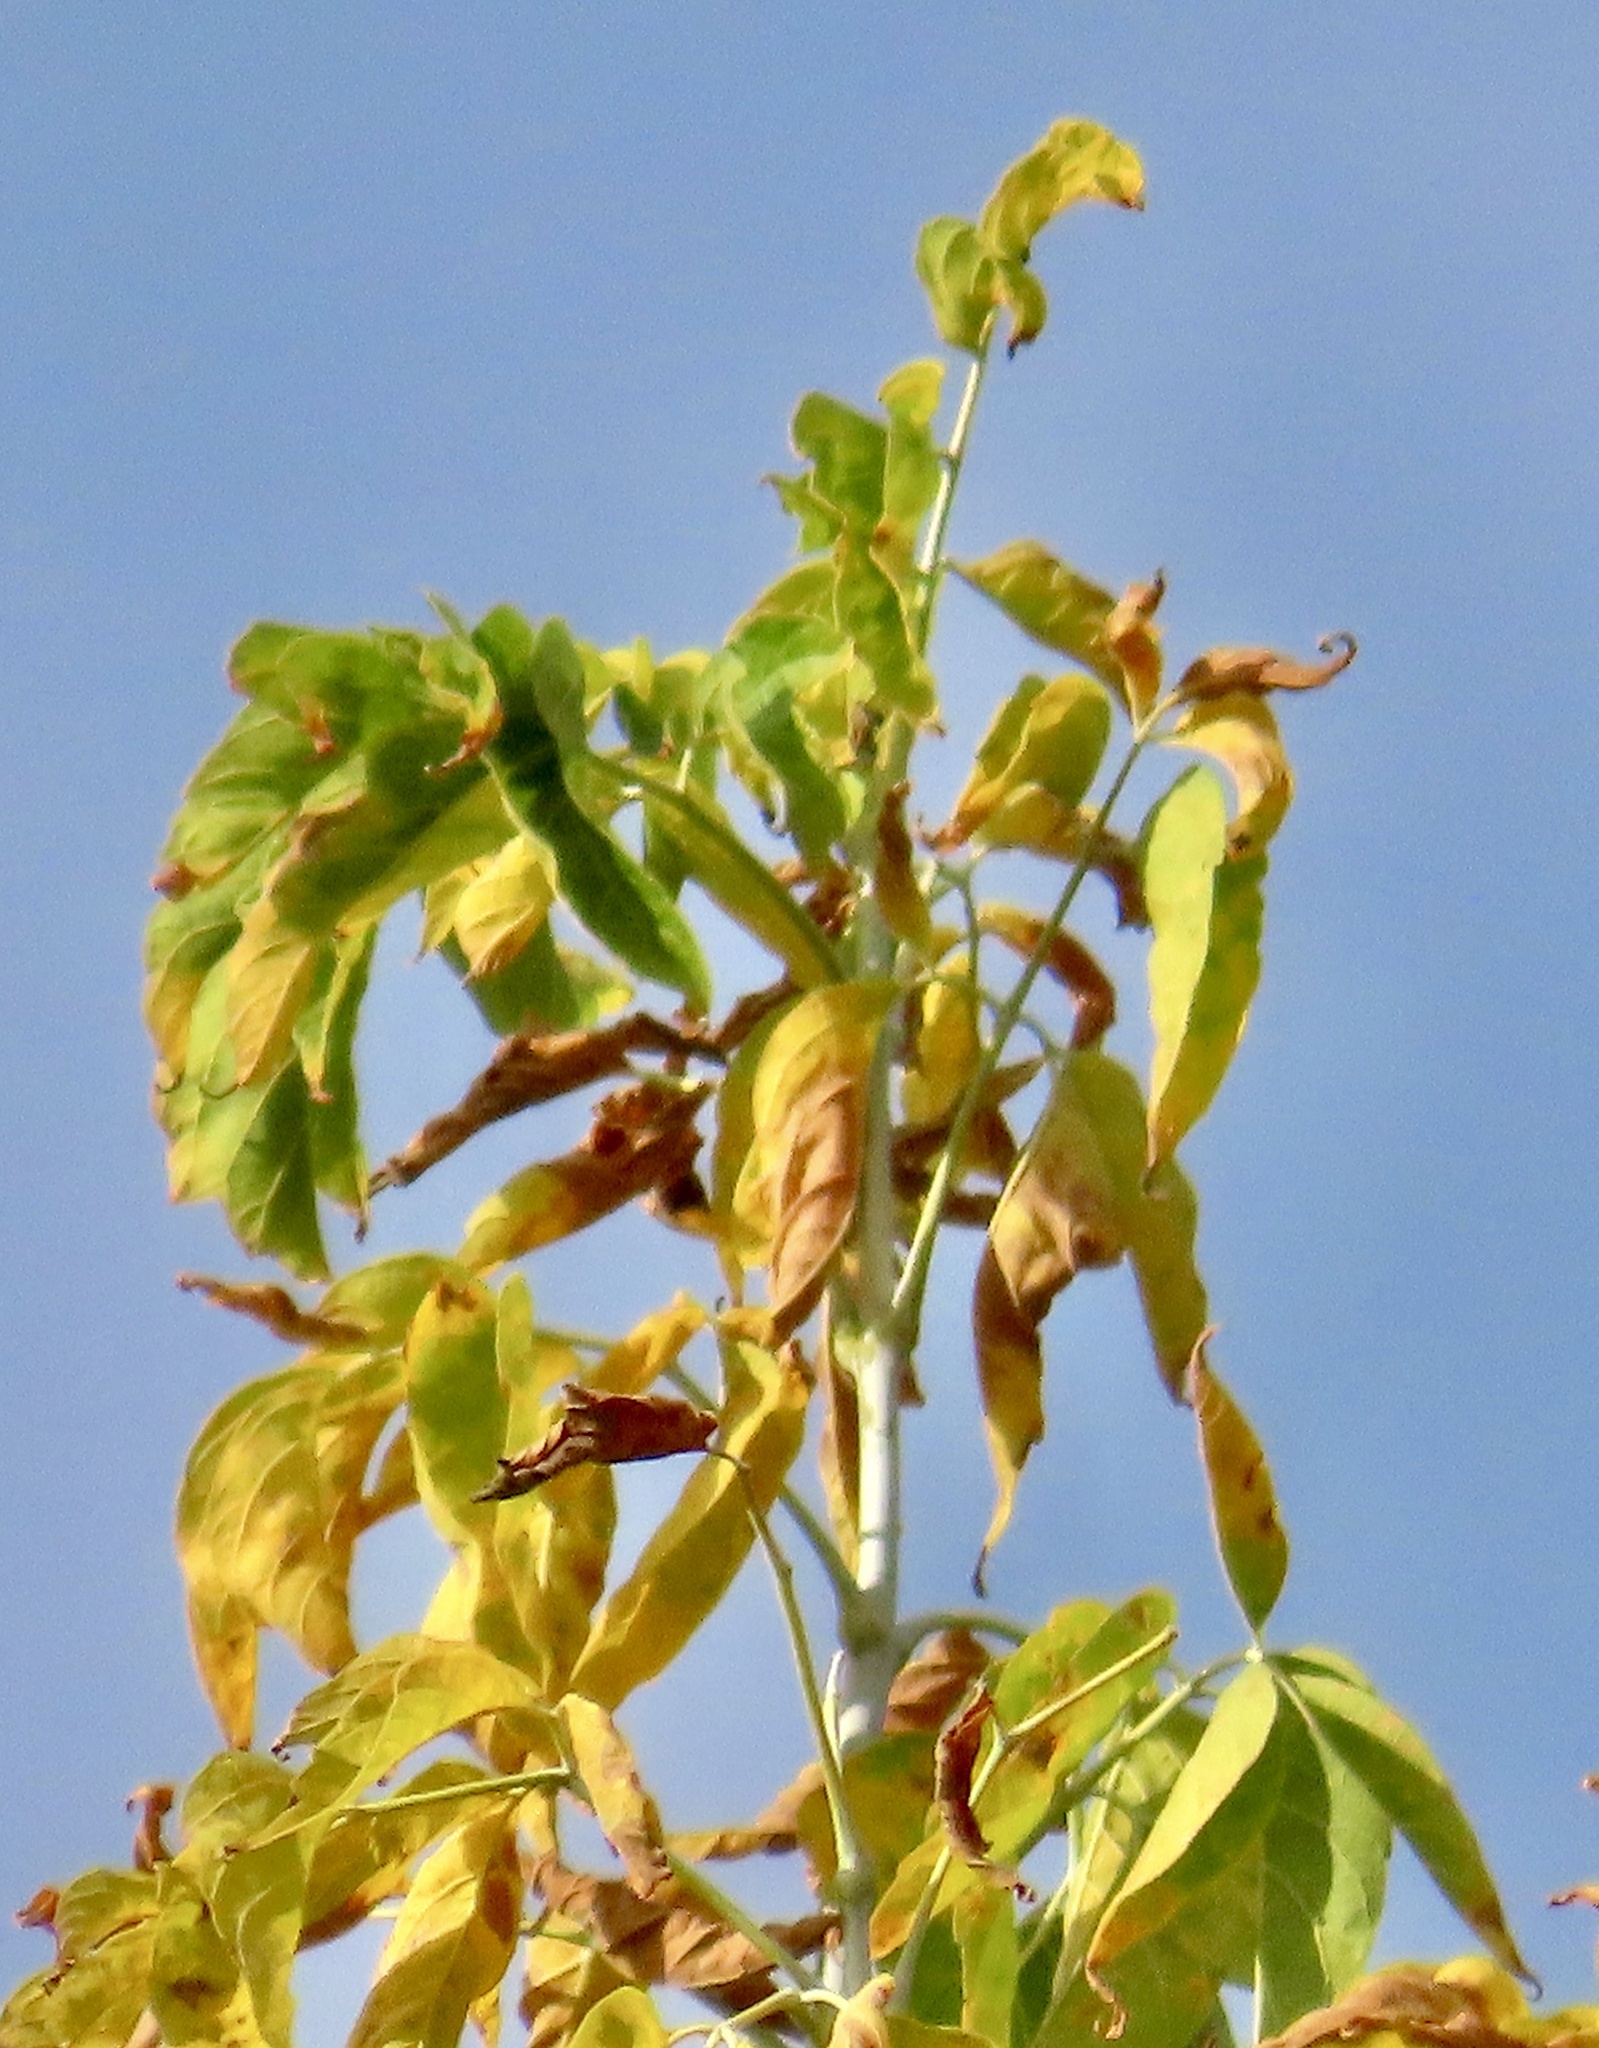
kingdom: Plantae
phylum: Tracheophyta
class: Magnoliopsida
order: Sapindales
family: Sapindaceae
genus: Acer
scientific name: Acer negundo
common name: Ashleaf maple
